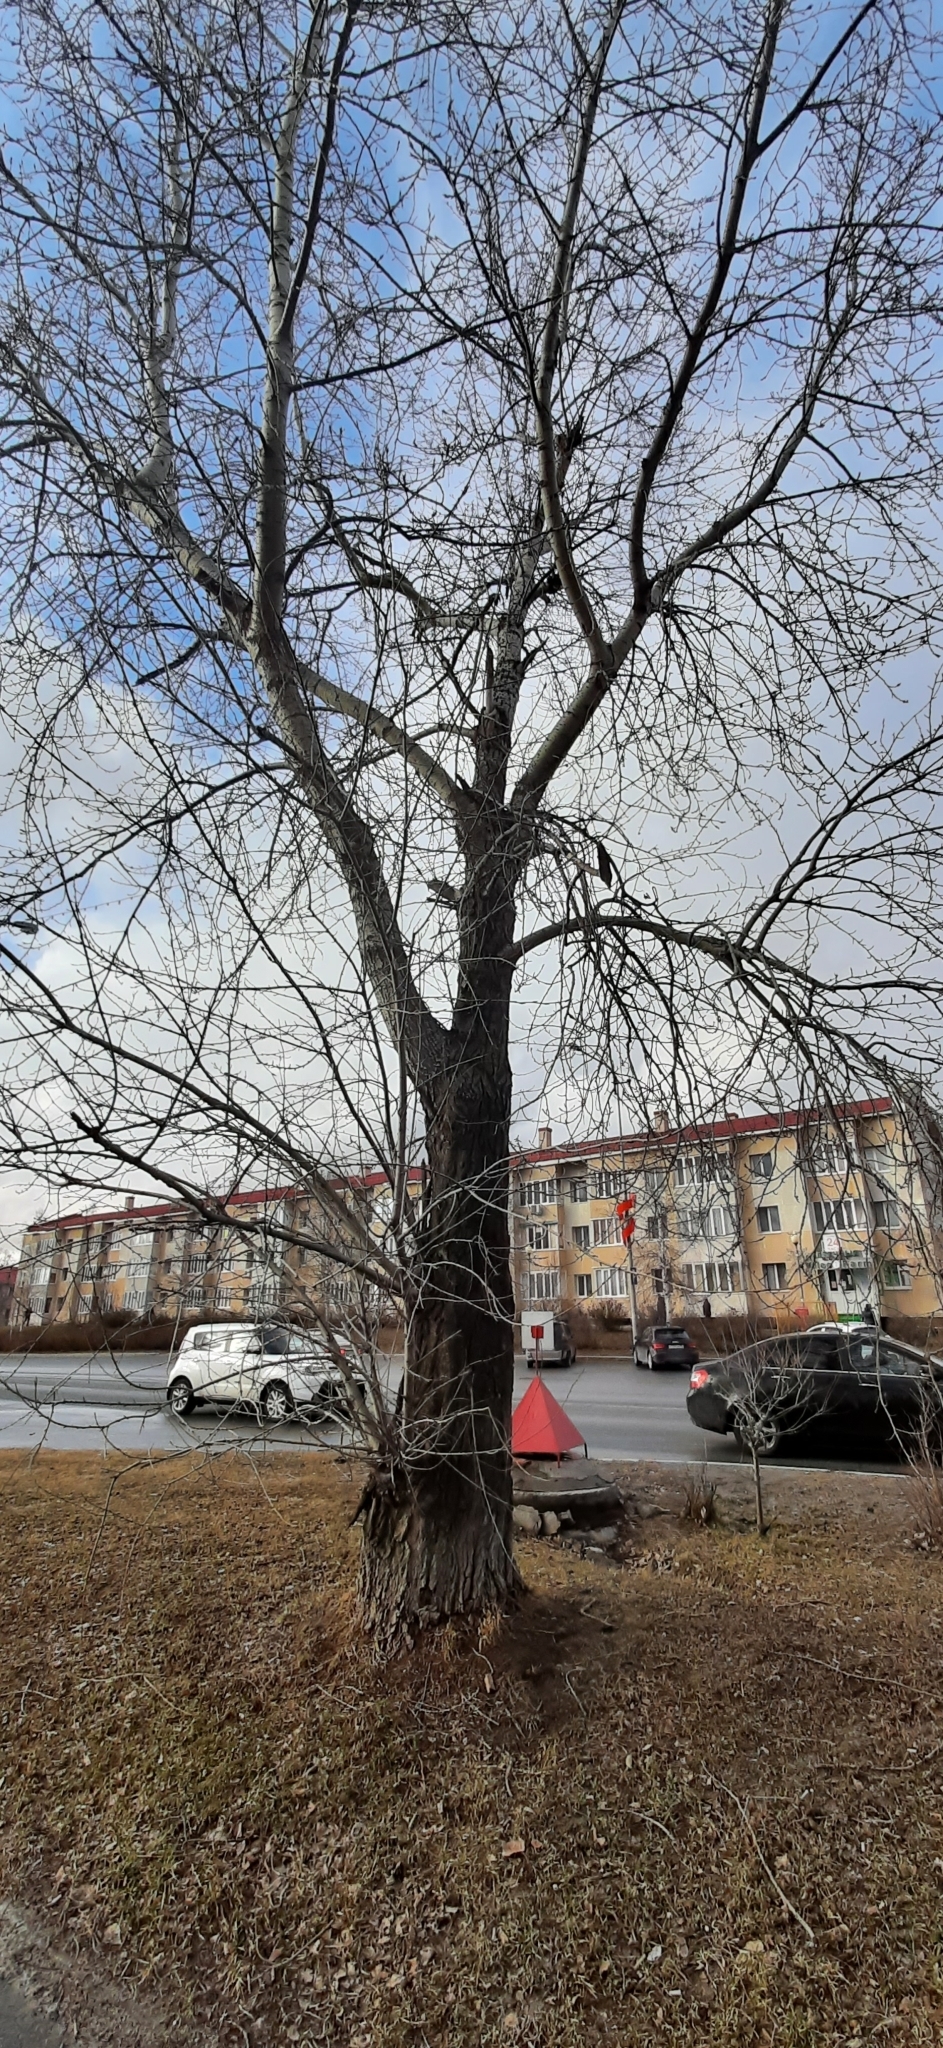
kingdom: Plantae
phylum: Tracheophyta
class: Magnoliopsida
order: Malpighiales
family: Salicaceae
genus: Populus
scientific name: Populus sibirica
